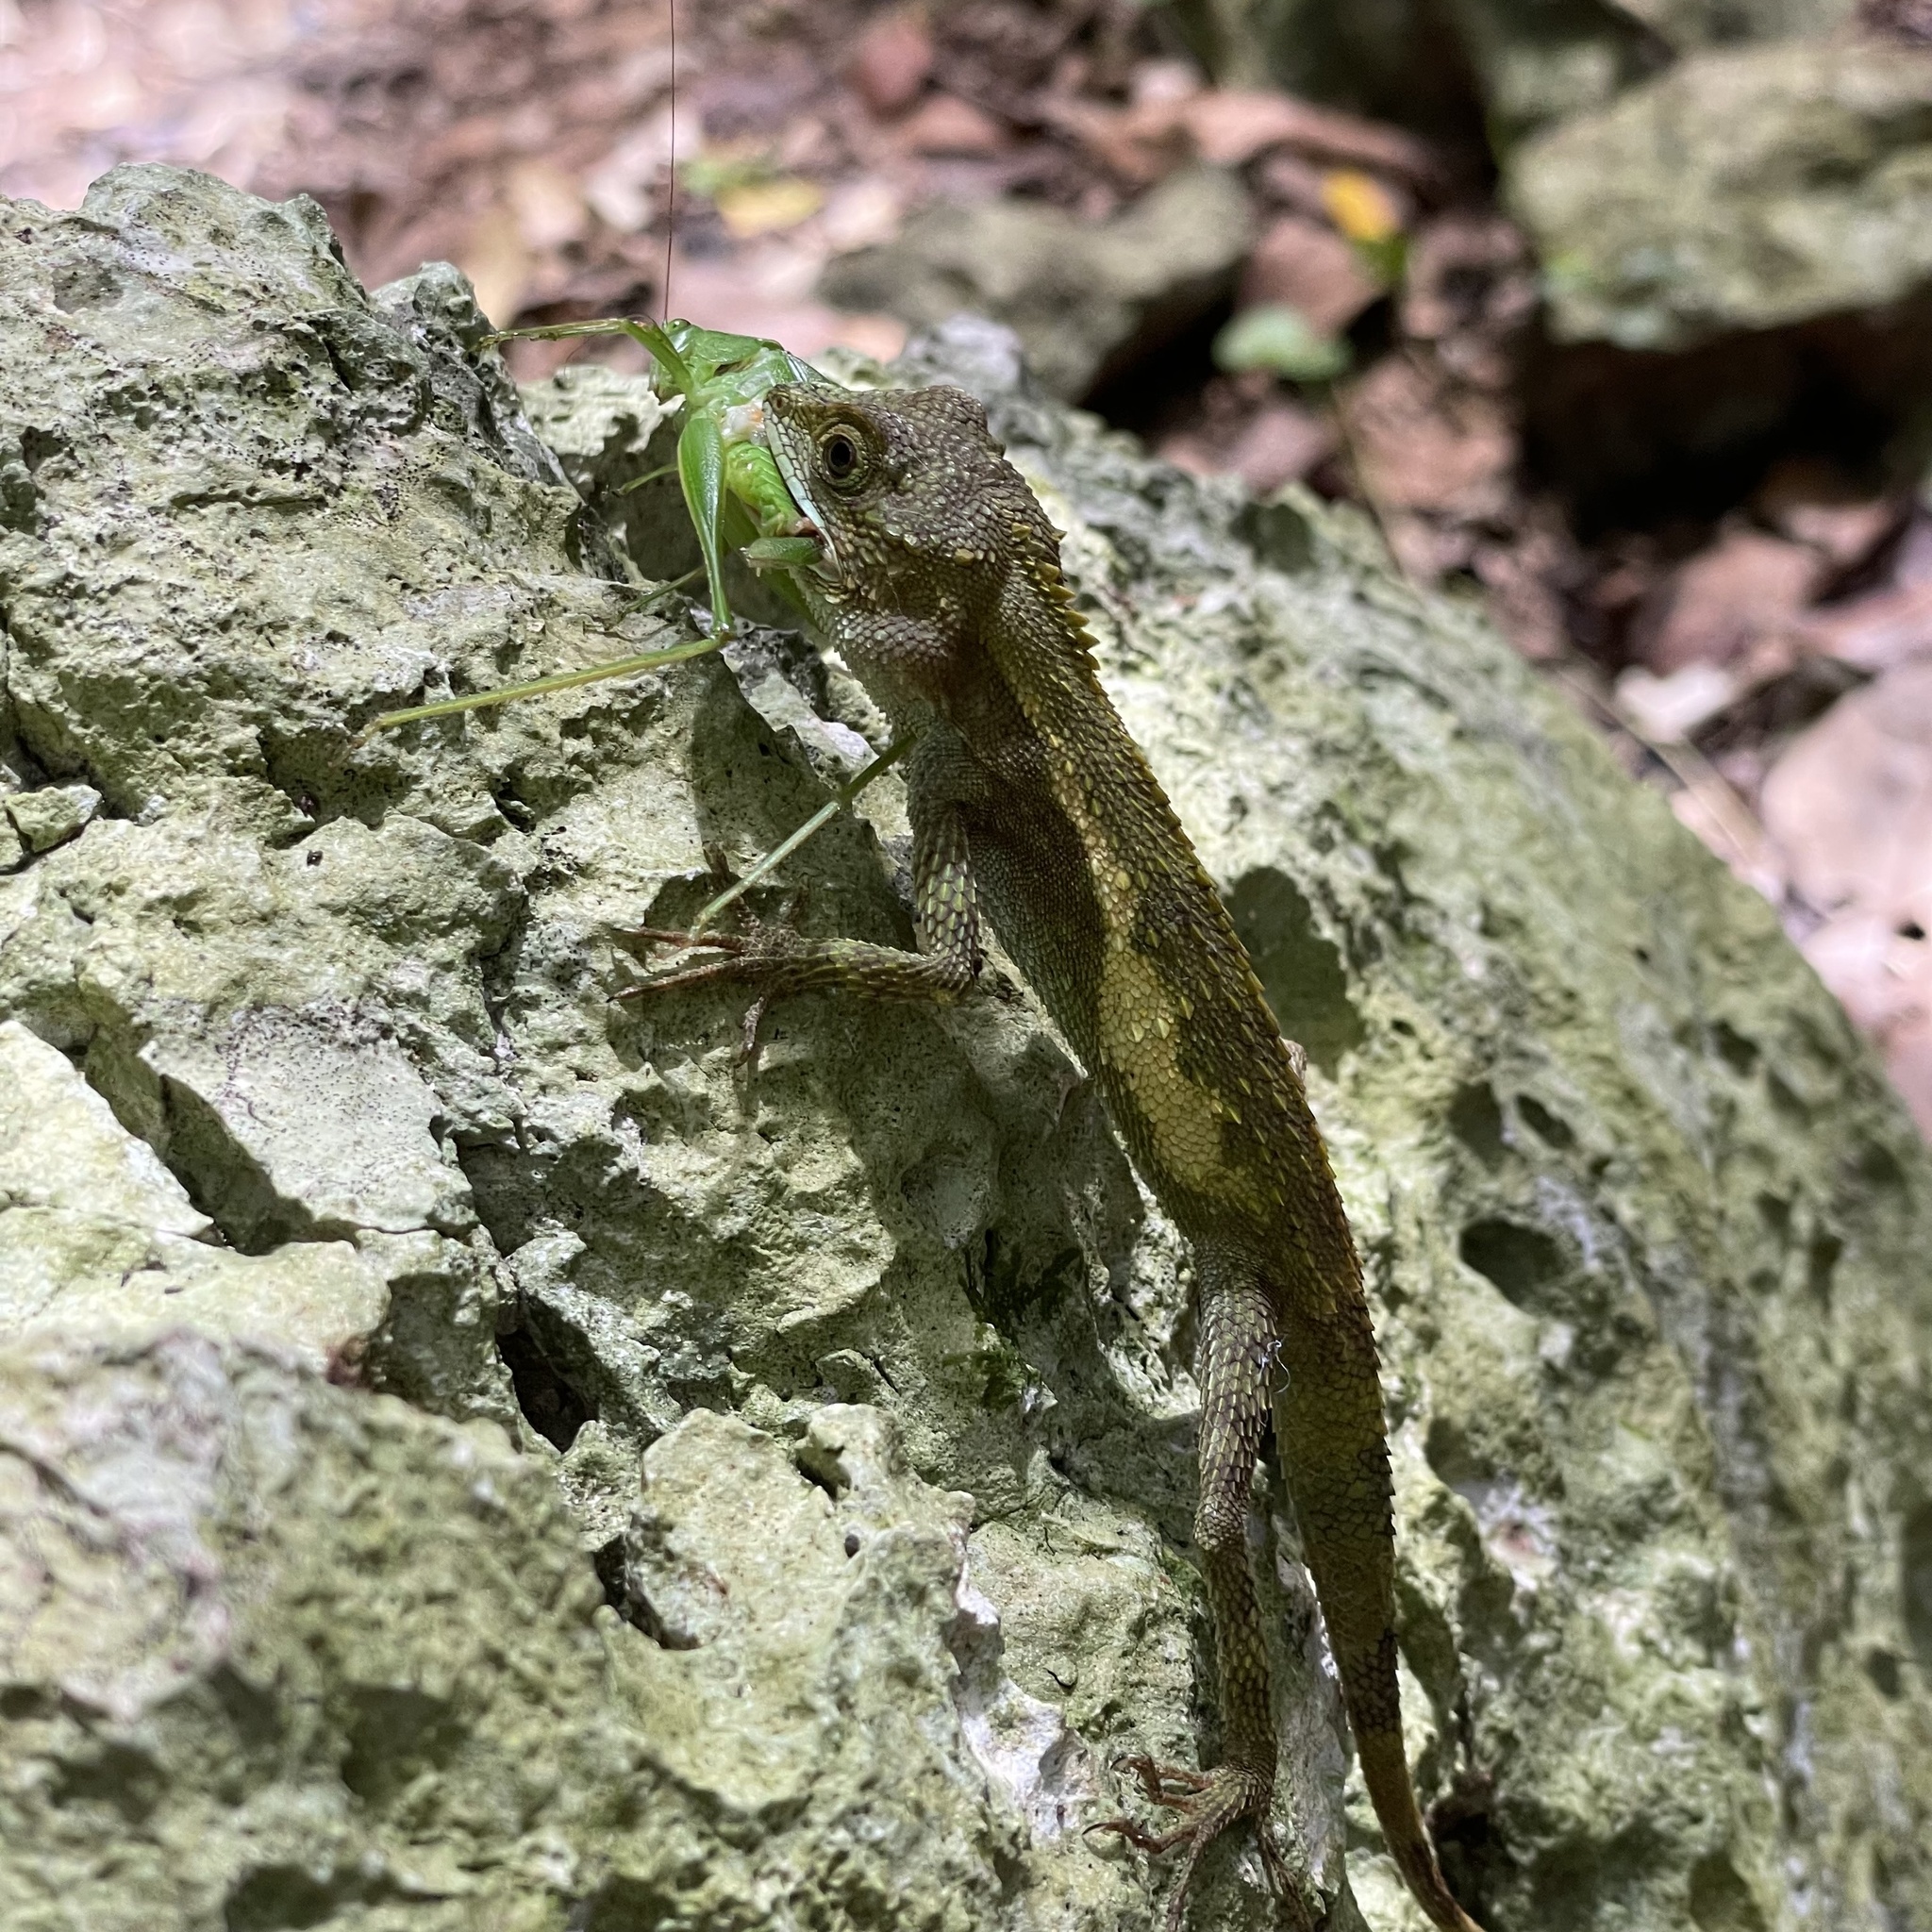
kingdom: Fungi
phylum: Basidiomycota
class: Agaricomycetes
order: Boletales
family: Diplocystidiaceae
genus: Diploderma
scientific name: Diploderma polygonatum
